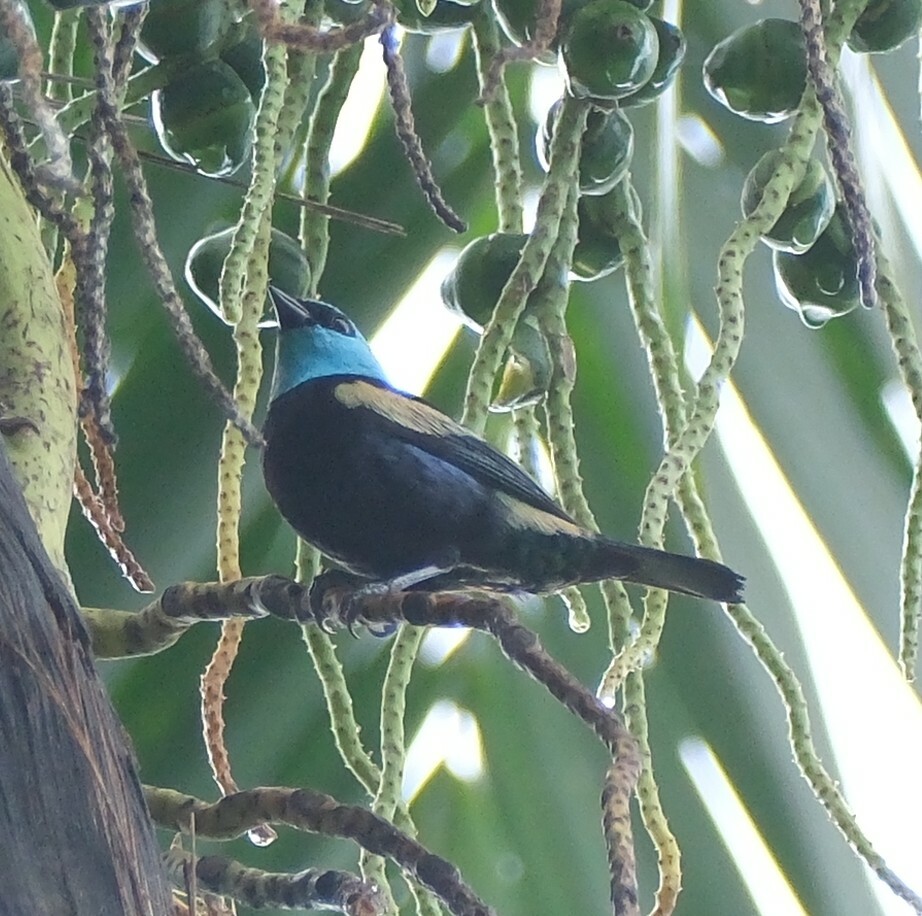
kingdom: Animalia
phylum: Chordata
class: Aves
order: Passeriformes
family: Thraupidae
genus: Stilpnia
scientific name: Stilpnia cyanicollis
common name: Blue-necked tanager
